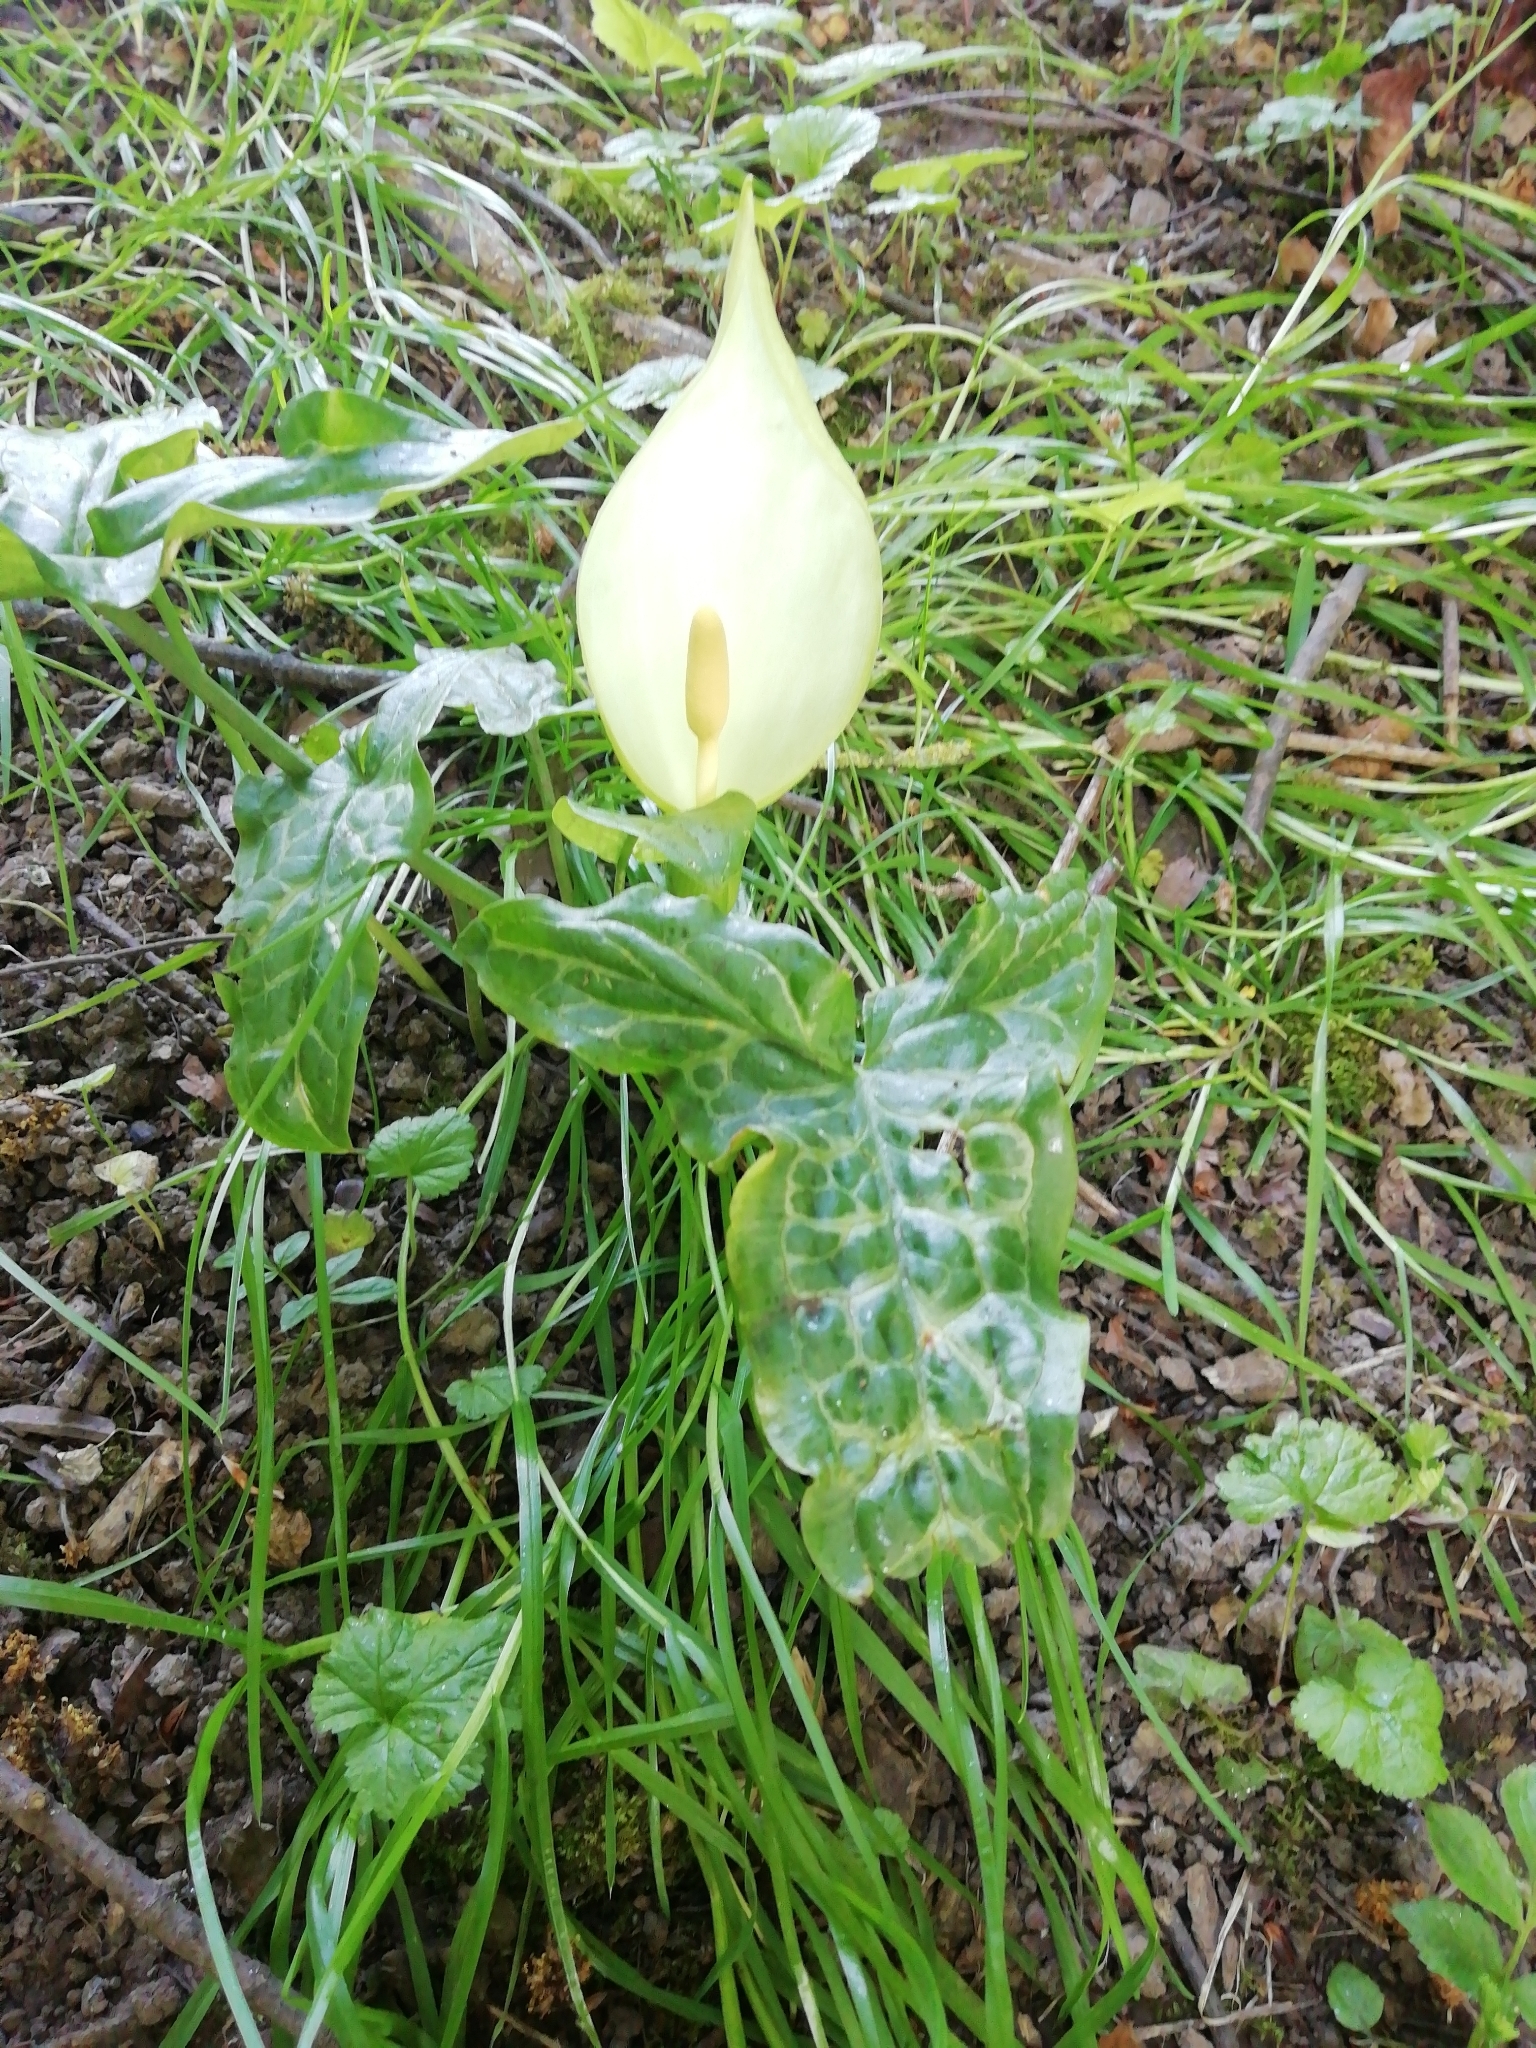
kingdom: Plantae
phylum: Tracheophyta
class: Liliopsida
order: Alismatales
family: Araceae
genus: Arum
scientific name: Arum italicum
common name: Italian lords-and-ladies
